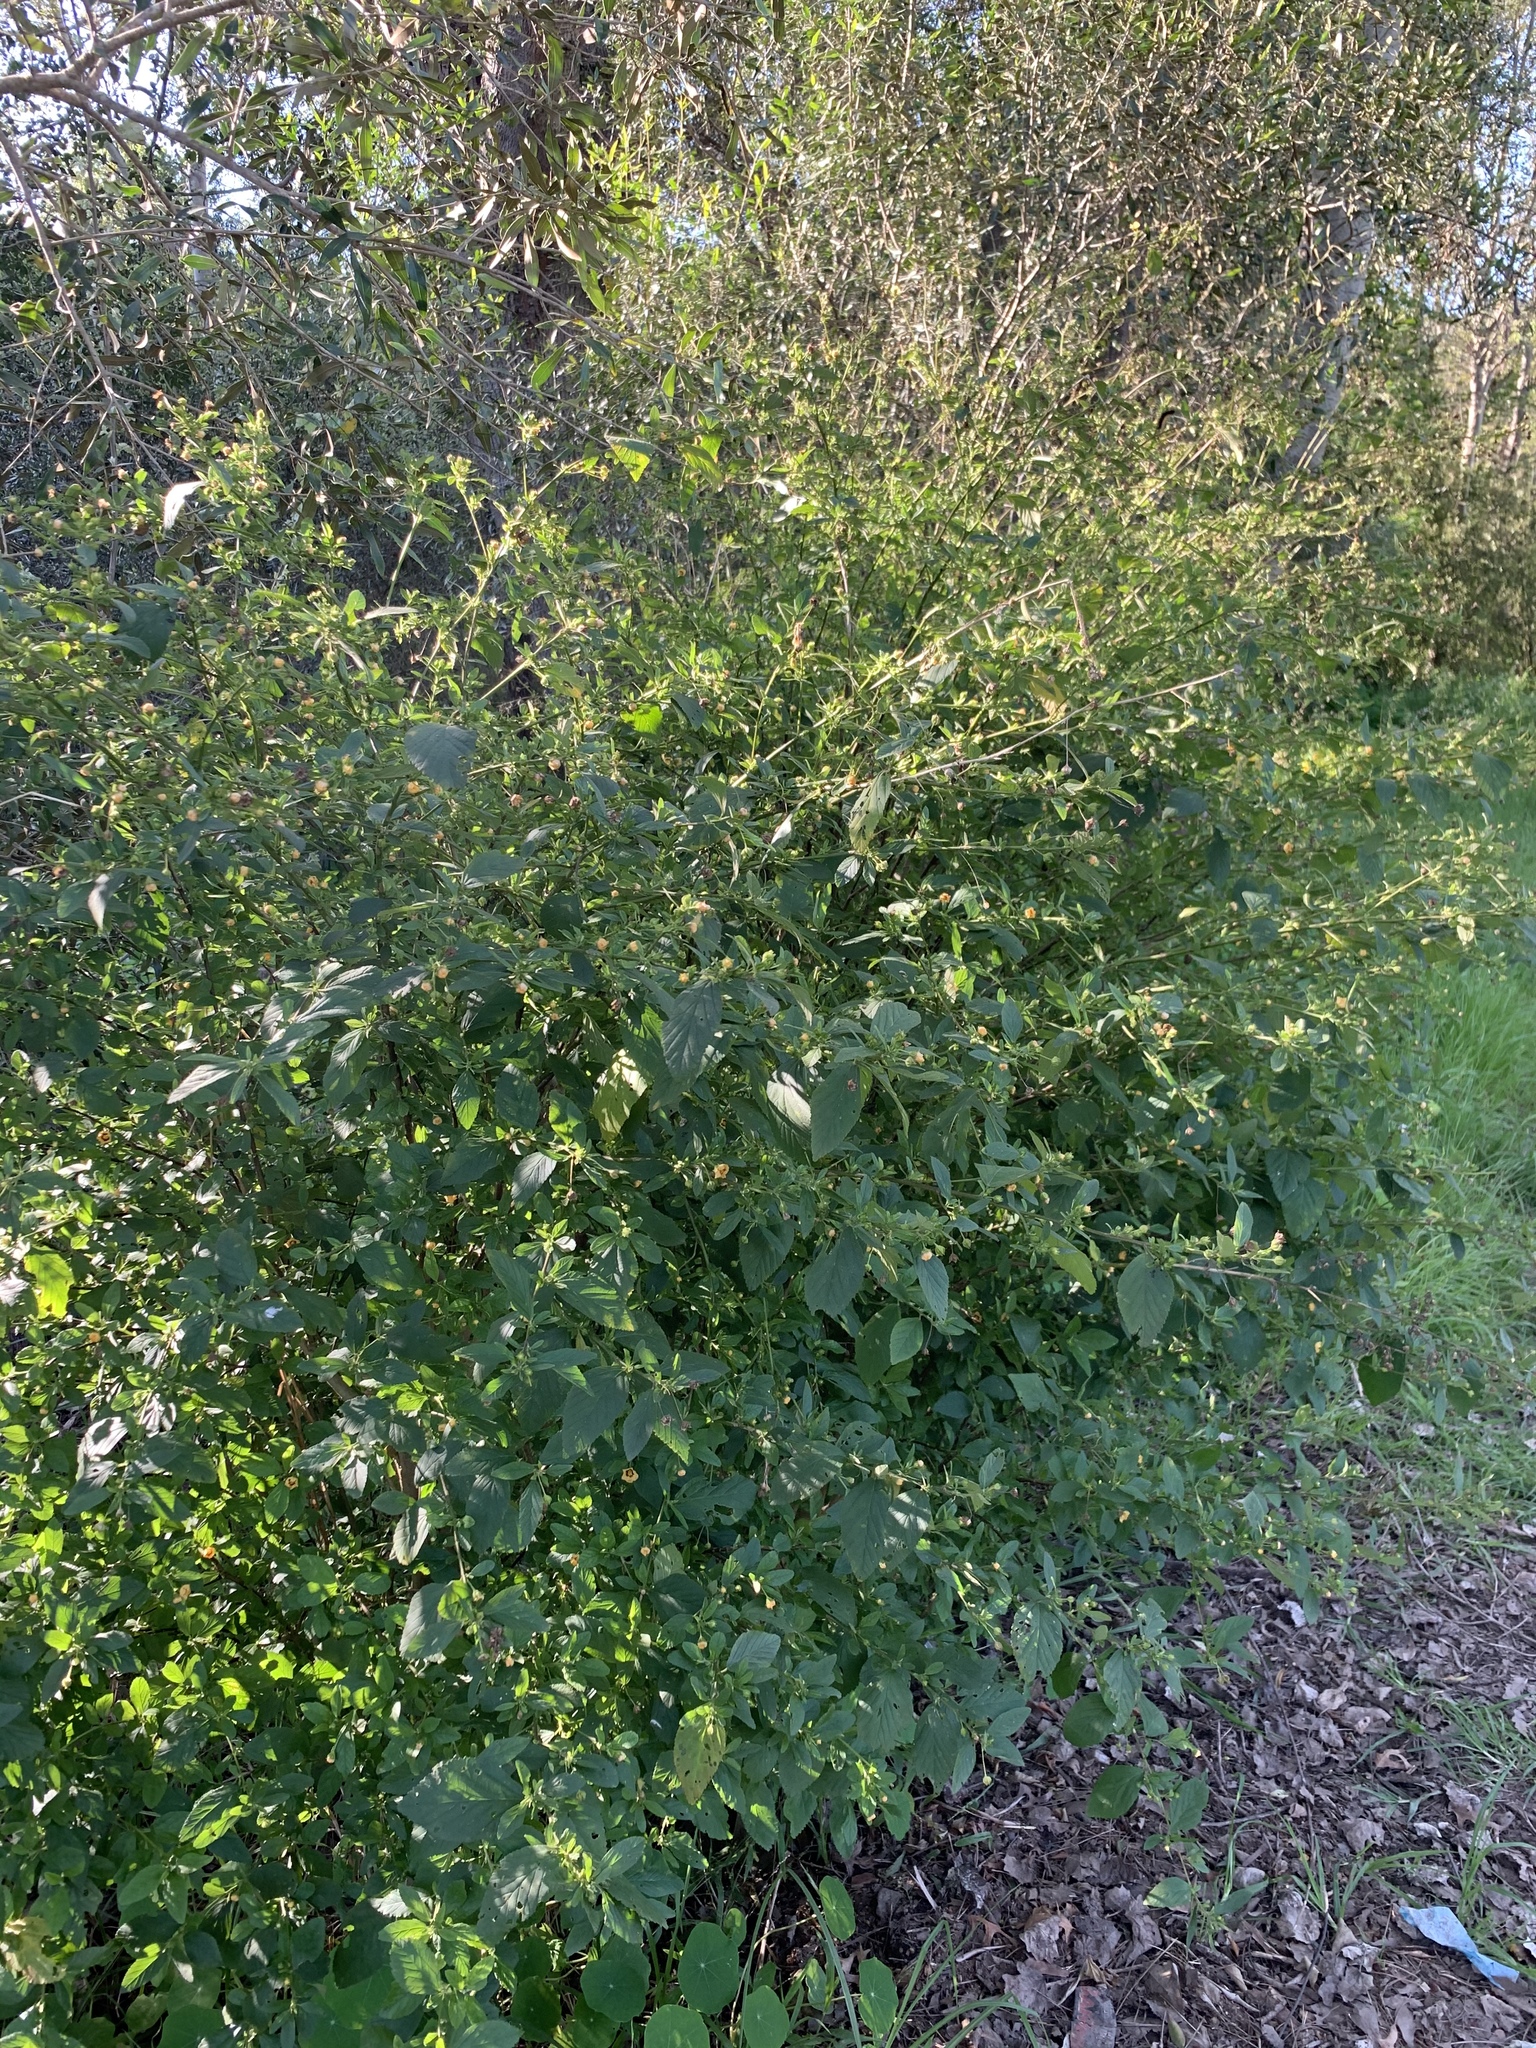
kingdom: Plantae
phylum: Tracheophyta
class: Magnoliopsida
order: Malvales
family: Malvaceae
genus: Sida
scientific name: Sida rhombifolia
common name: Queensland-hemp
